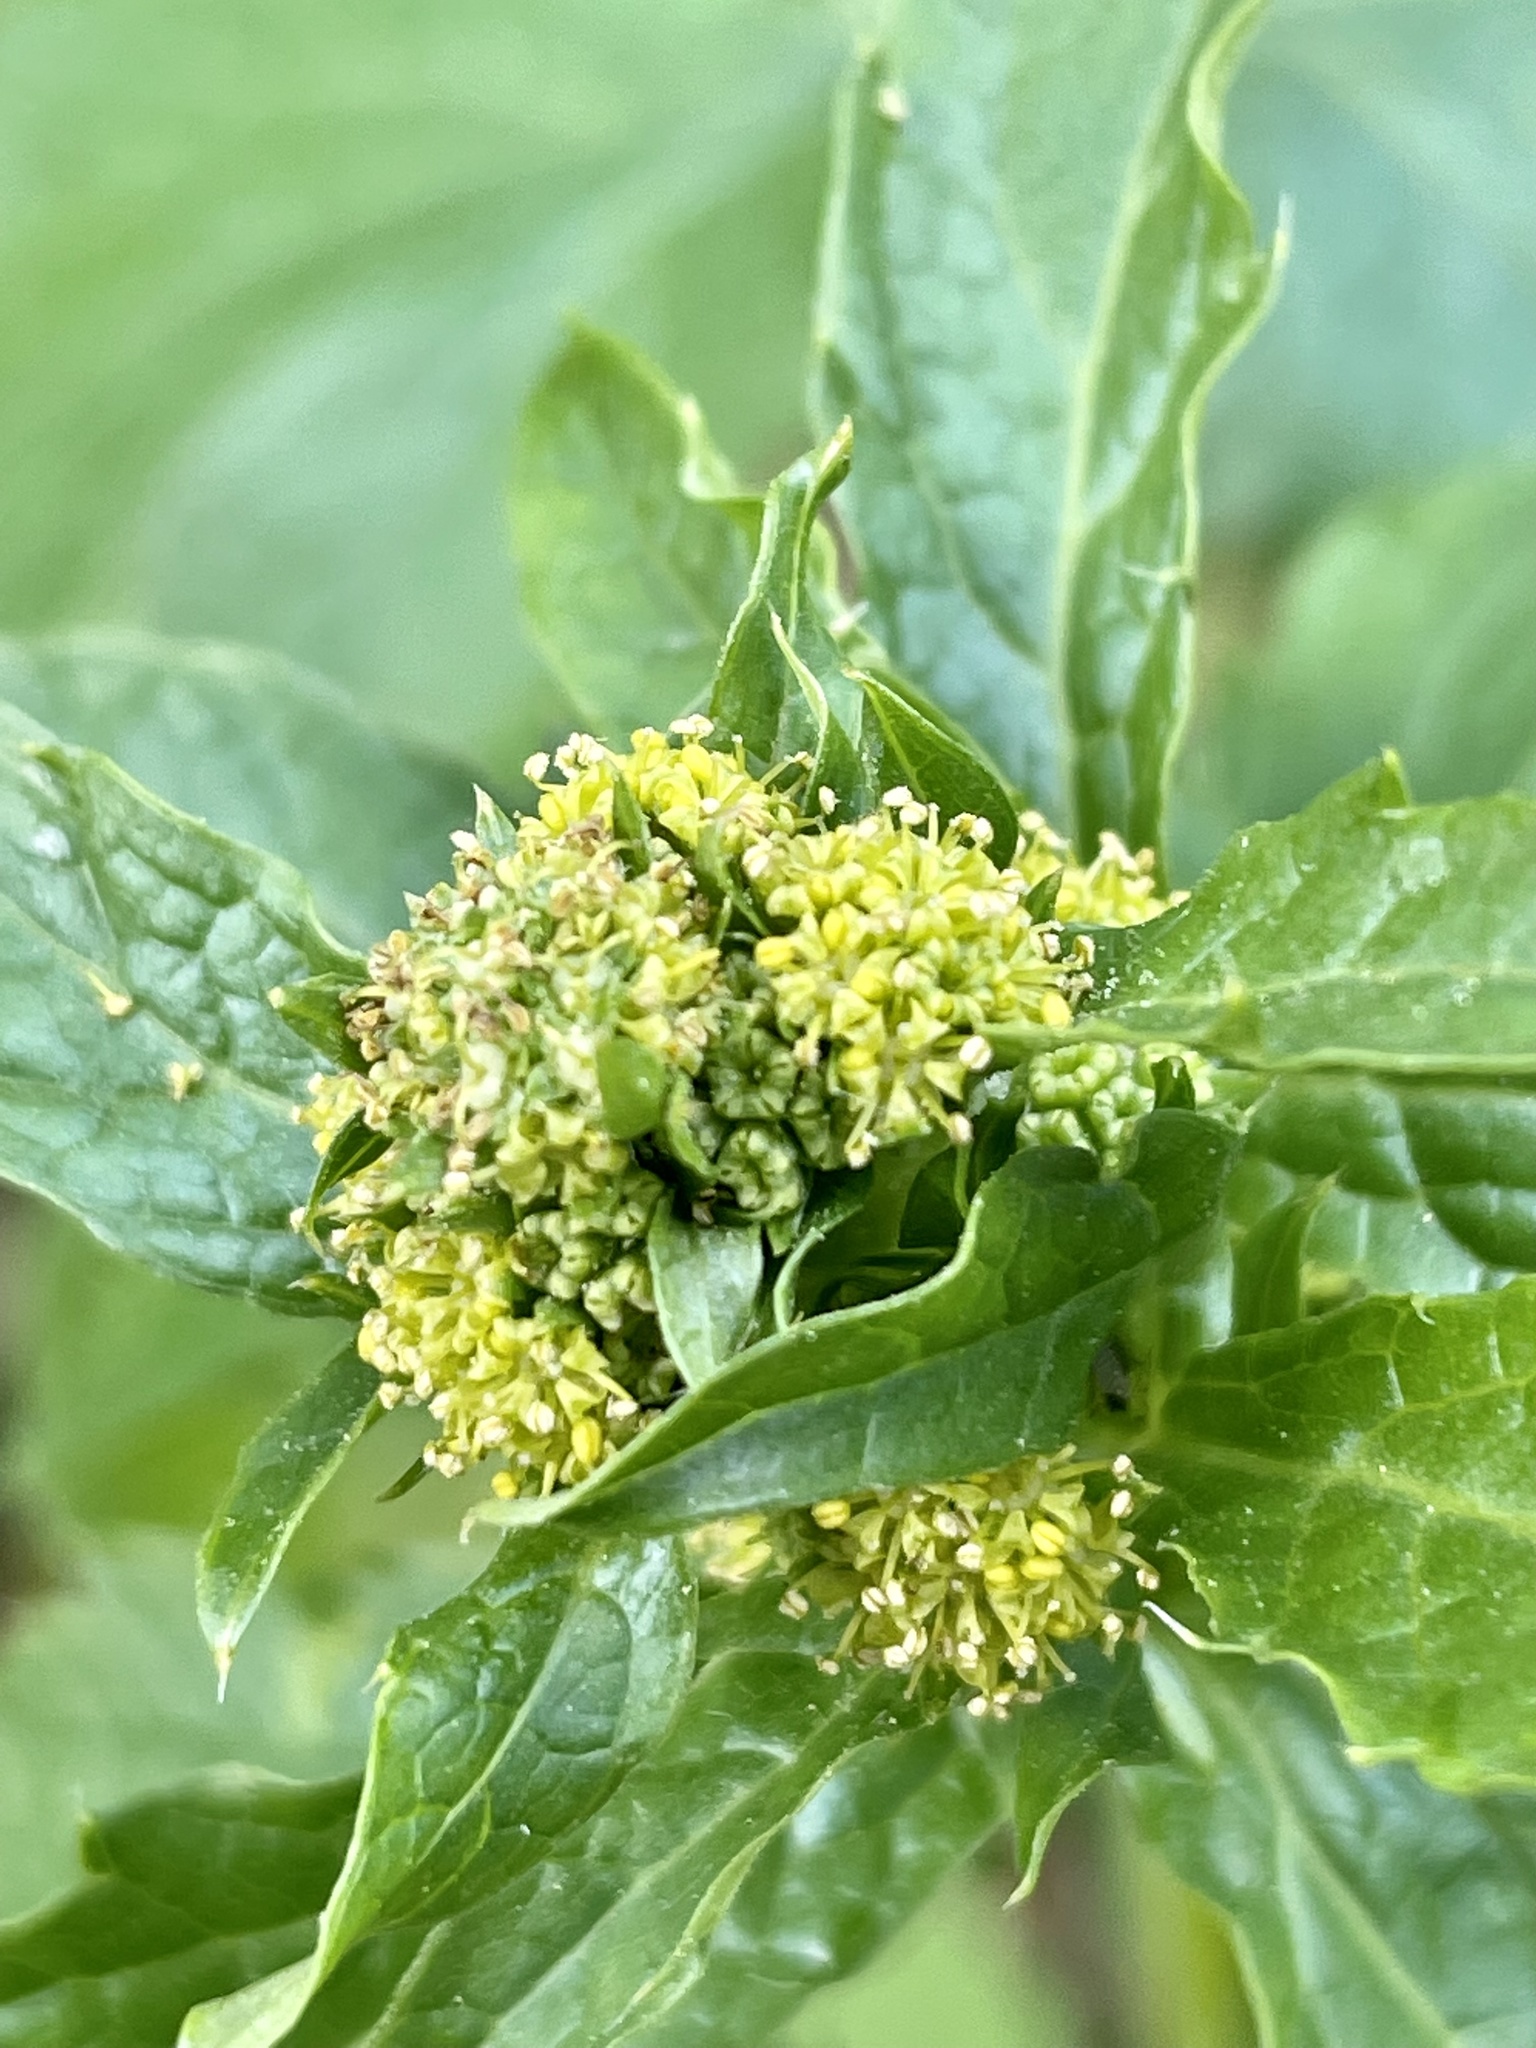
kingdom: Plantae
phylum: Tracheophyta
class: Magnoliopsida
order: Apiales
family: Apiaceae
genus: Sanicula
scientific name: Sanicula crassicaulis
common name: Western snakeroot
